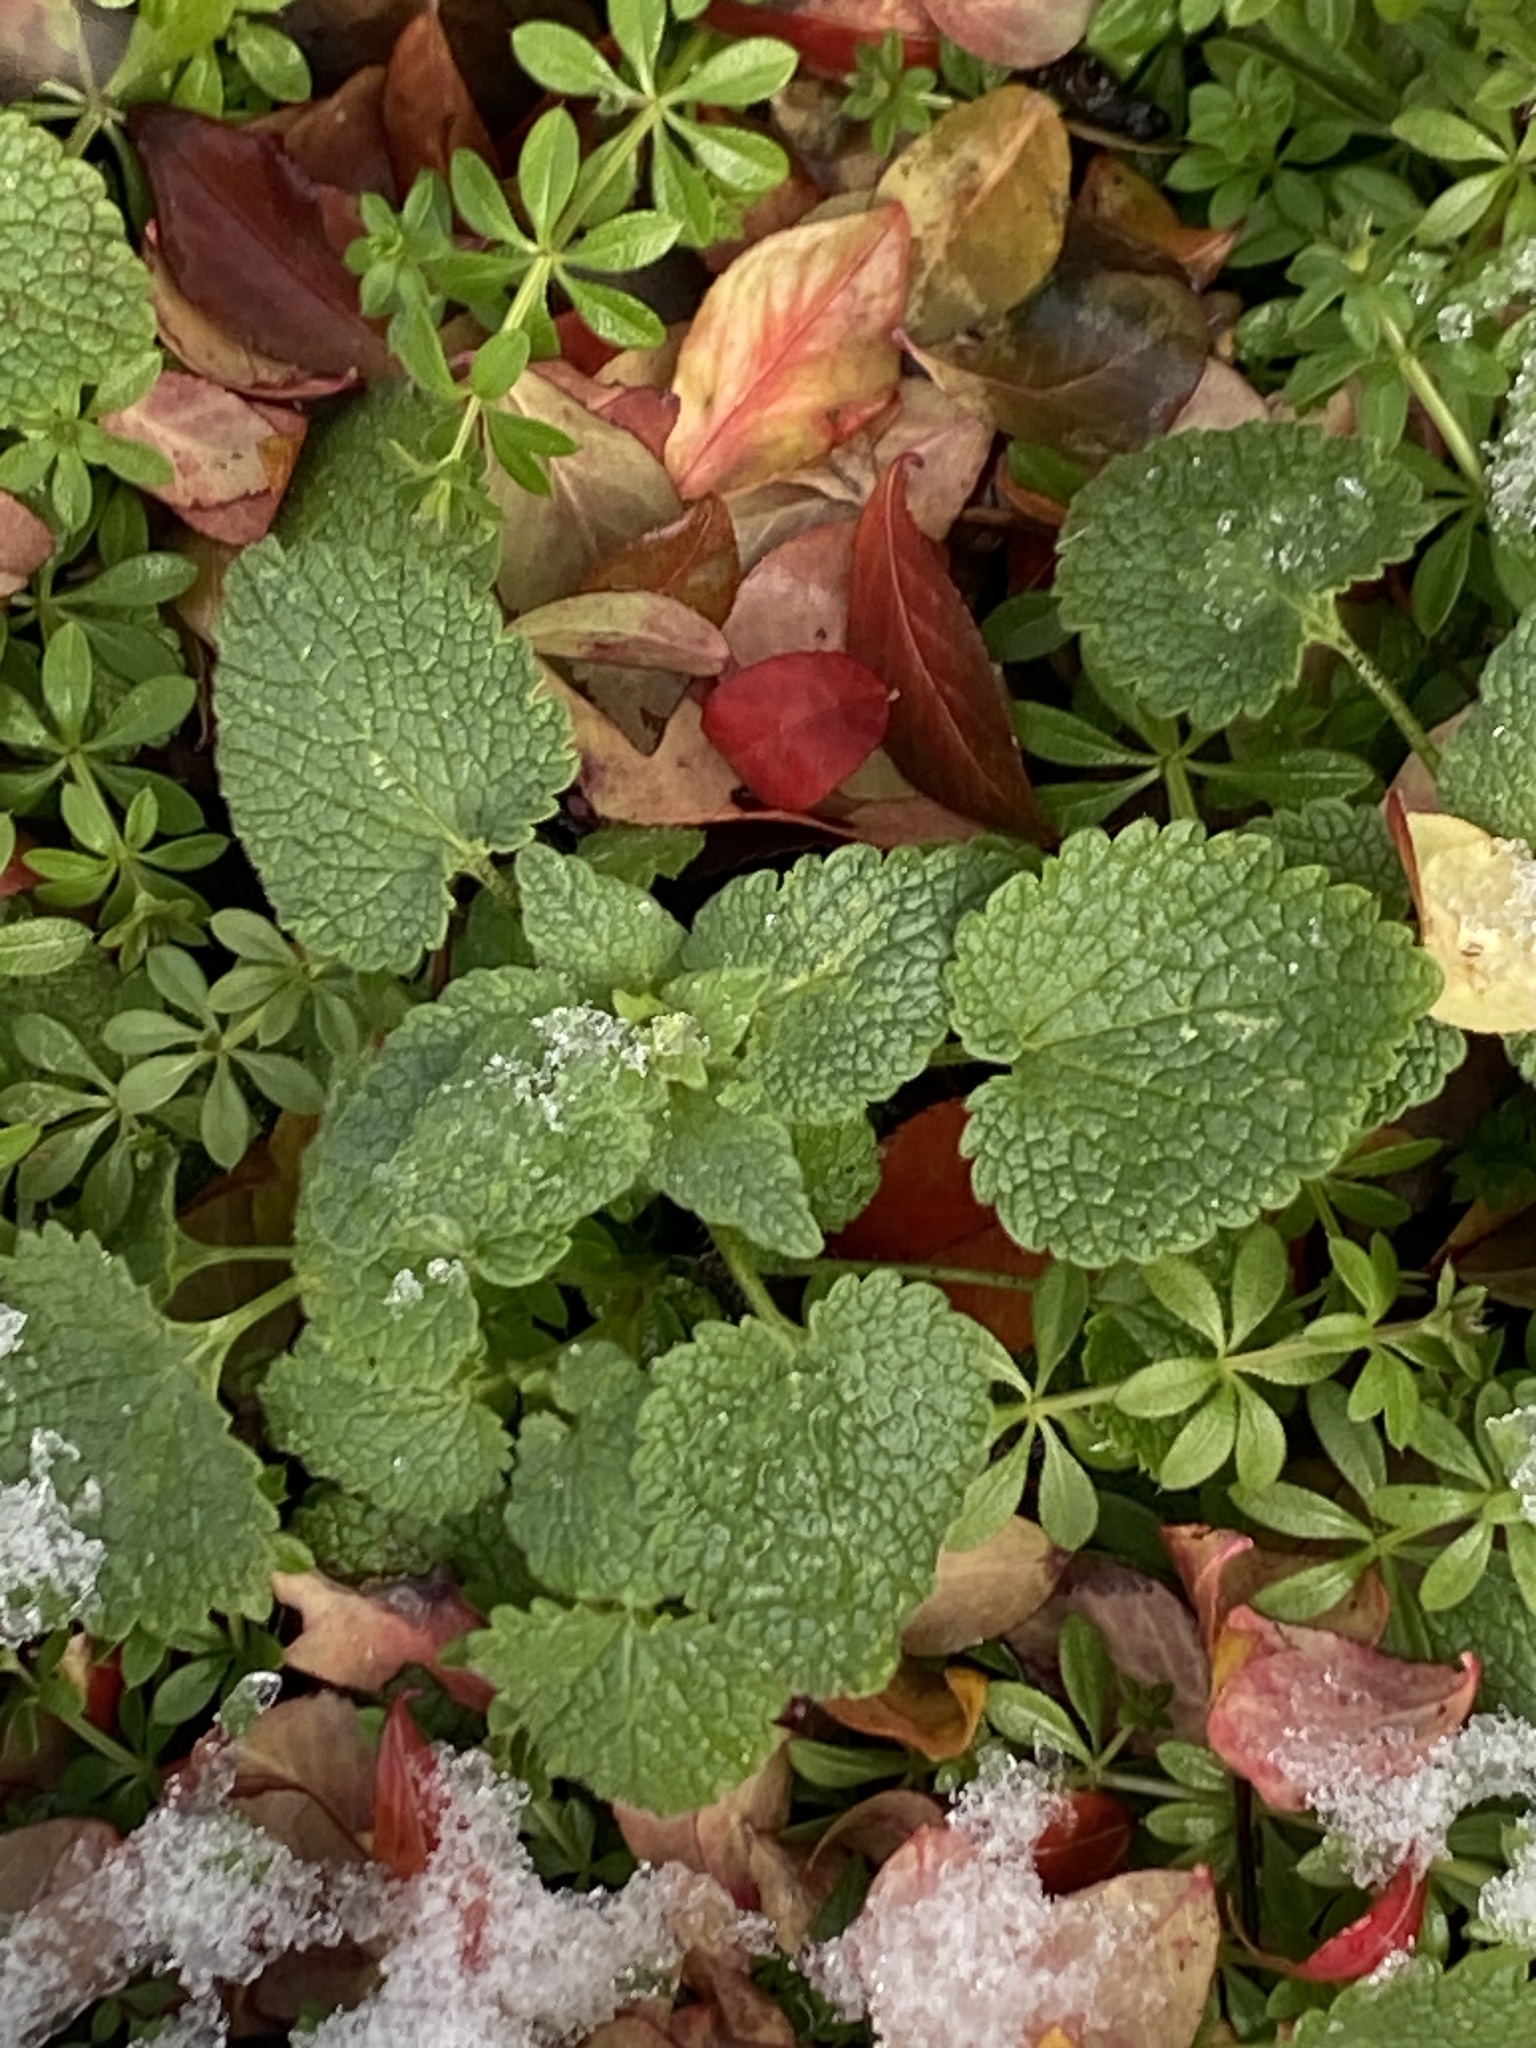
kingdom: Plantae
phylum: Tracheophyta
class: Magnoliopsida
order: Lamiales
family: Lamiaceae
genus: Lamium
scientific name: Lamium purpureum
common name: Red dead-nettle
